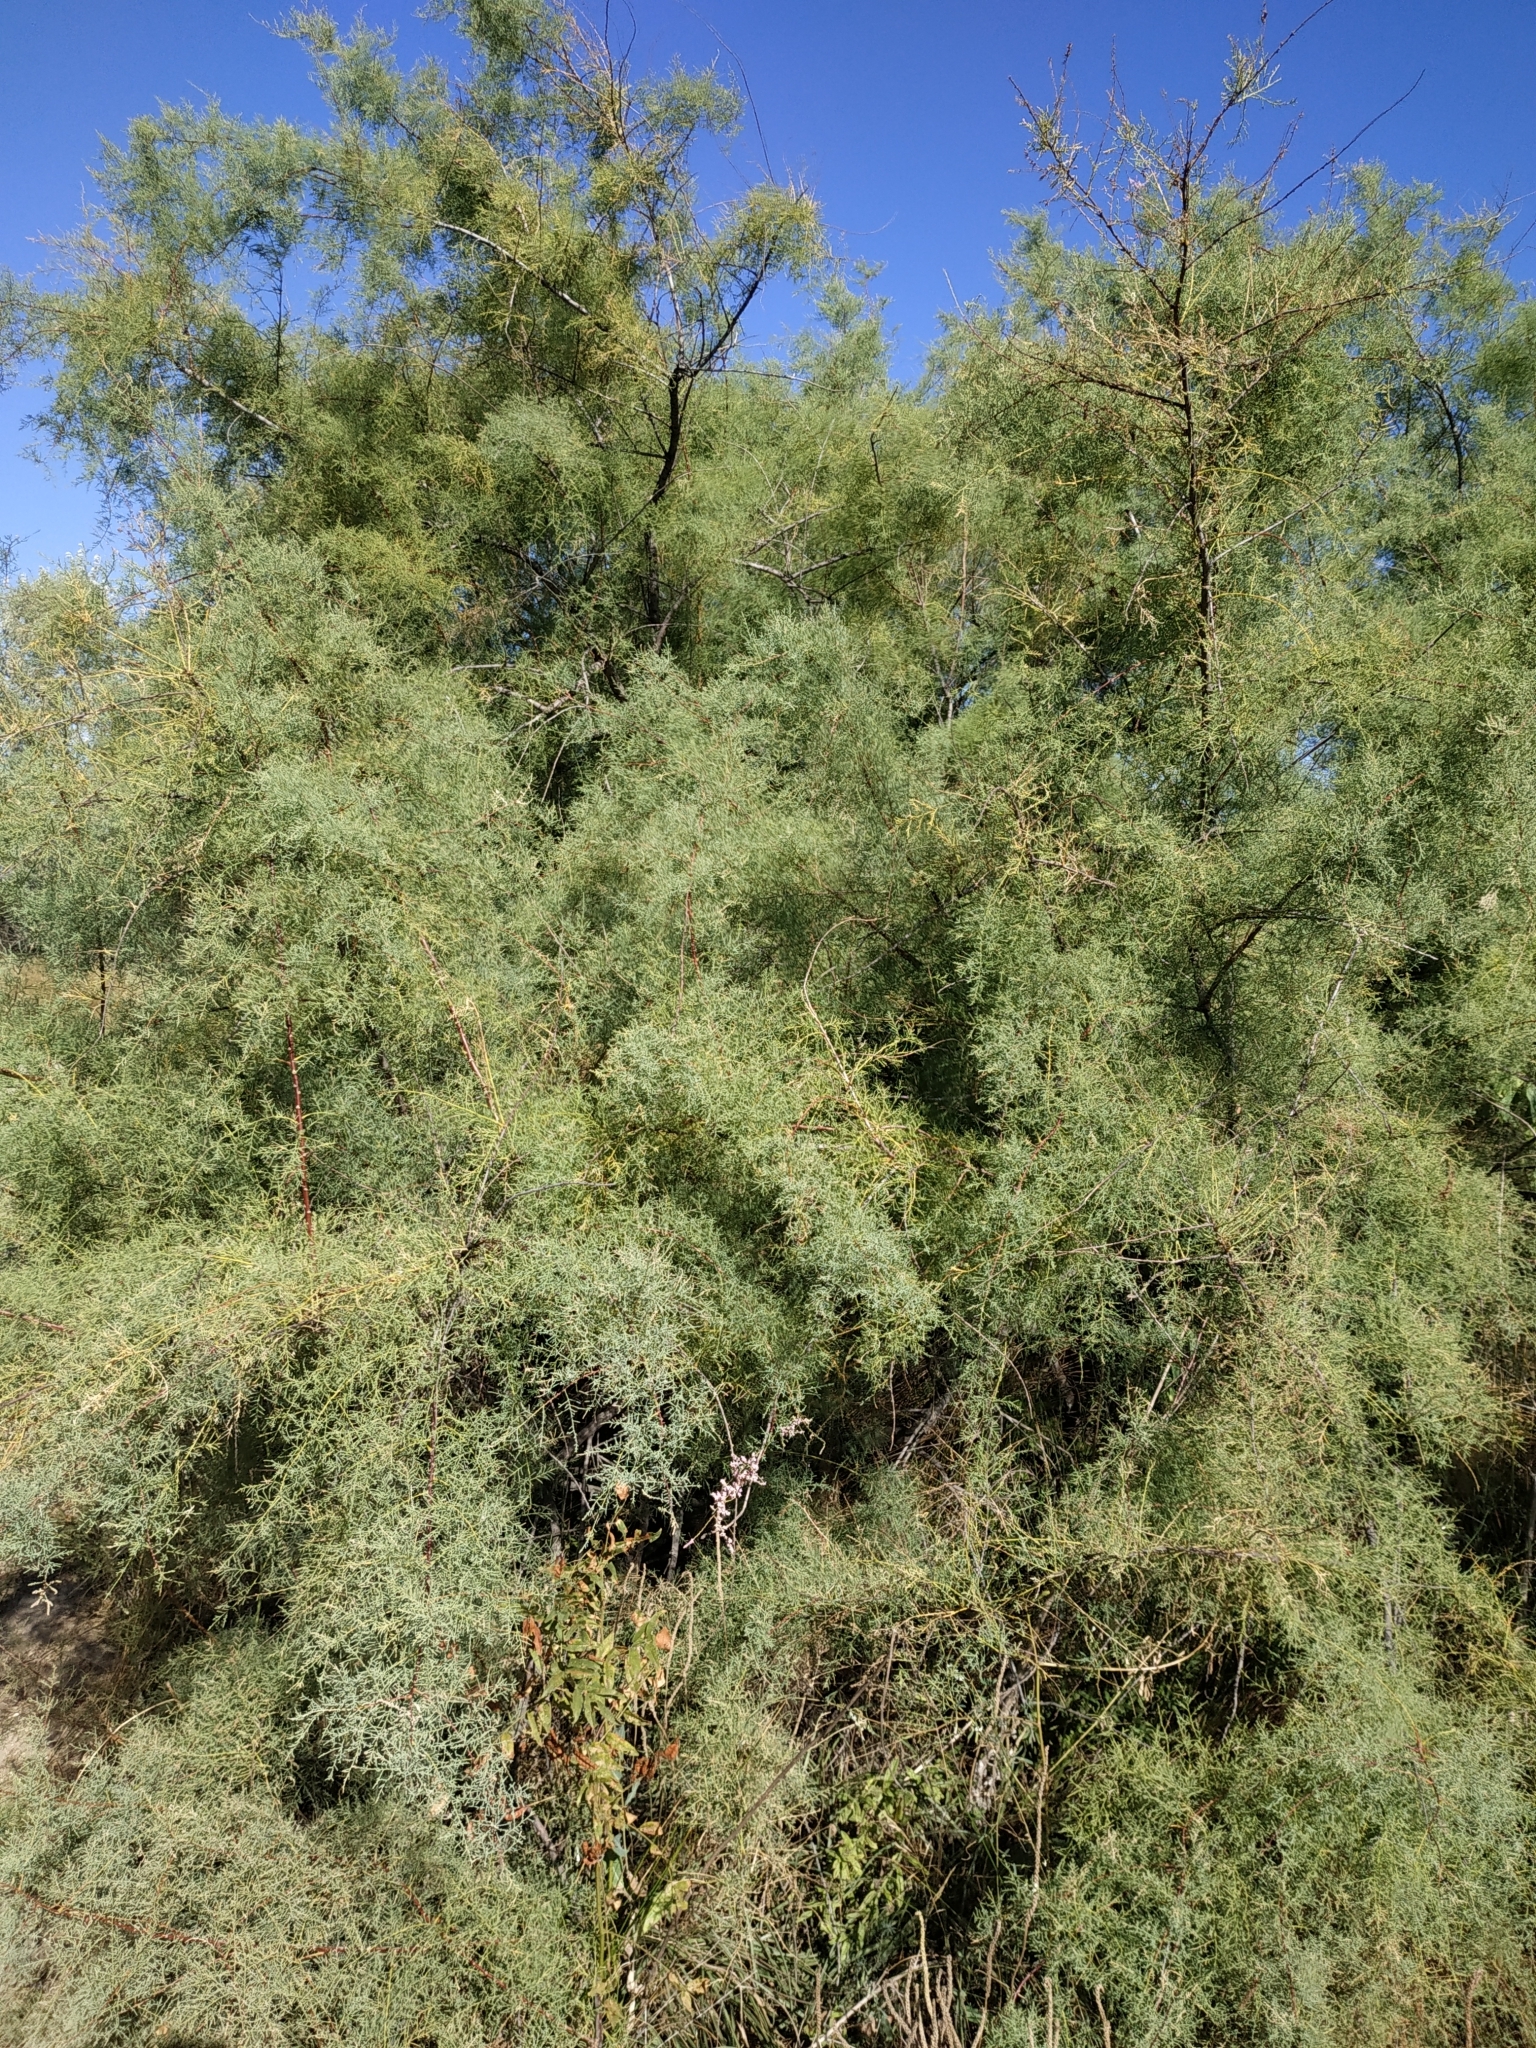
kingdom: Plantae
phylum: Tracheophyta
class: Magnoliopsida
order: Caryophyllales
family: Tamaricaceae
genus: Tamarix
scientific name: Tamarix ramosissima
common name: Pink tamarisk
